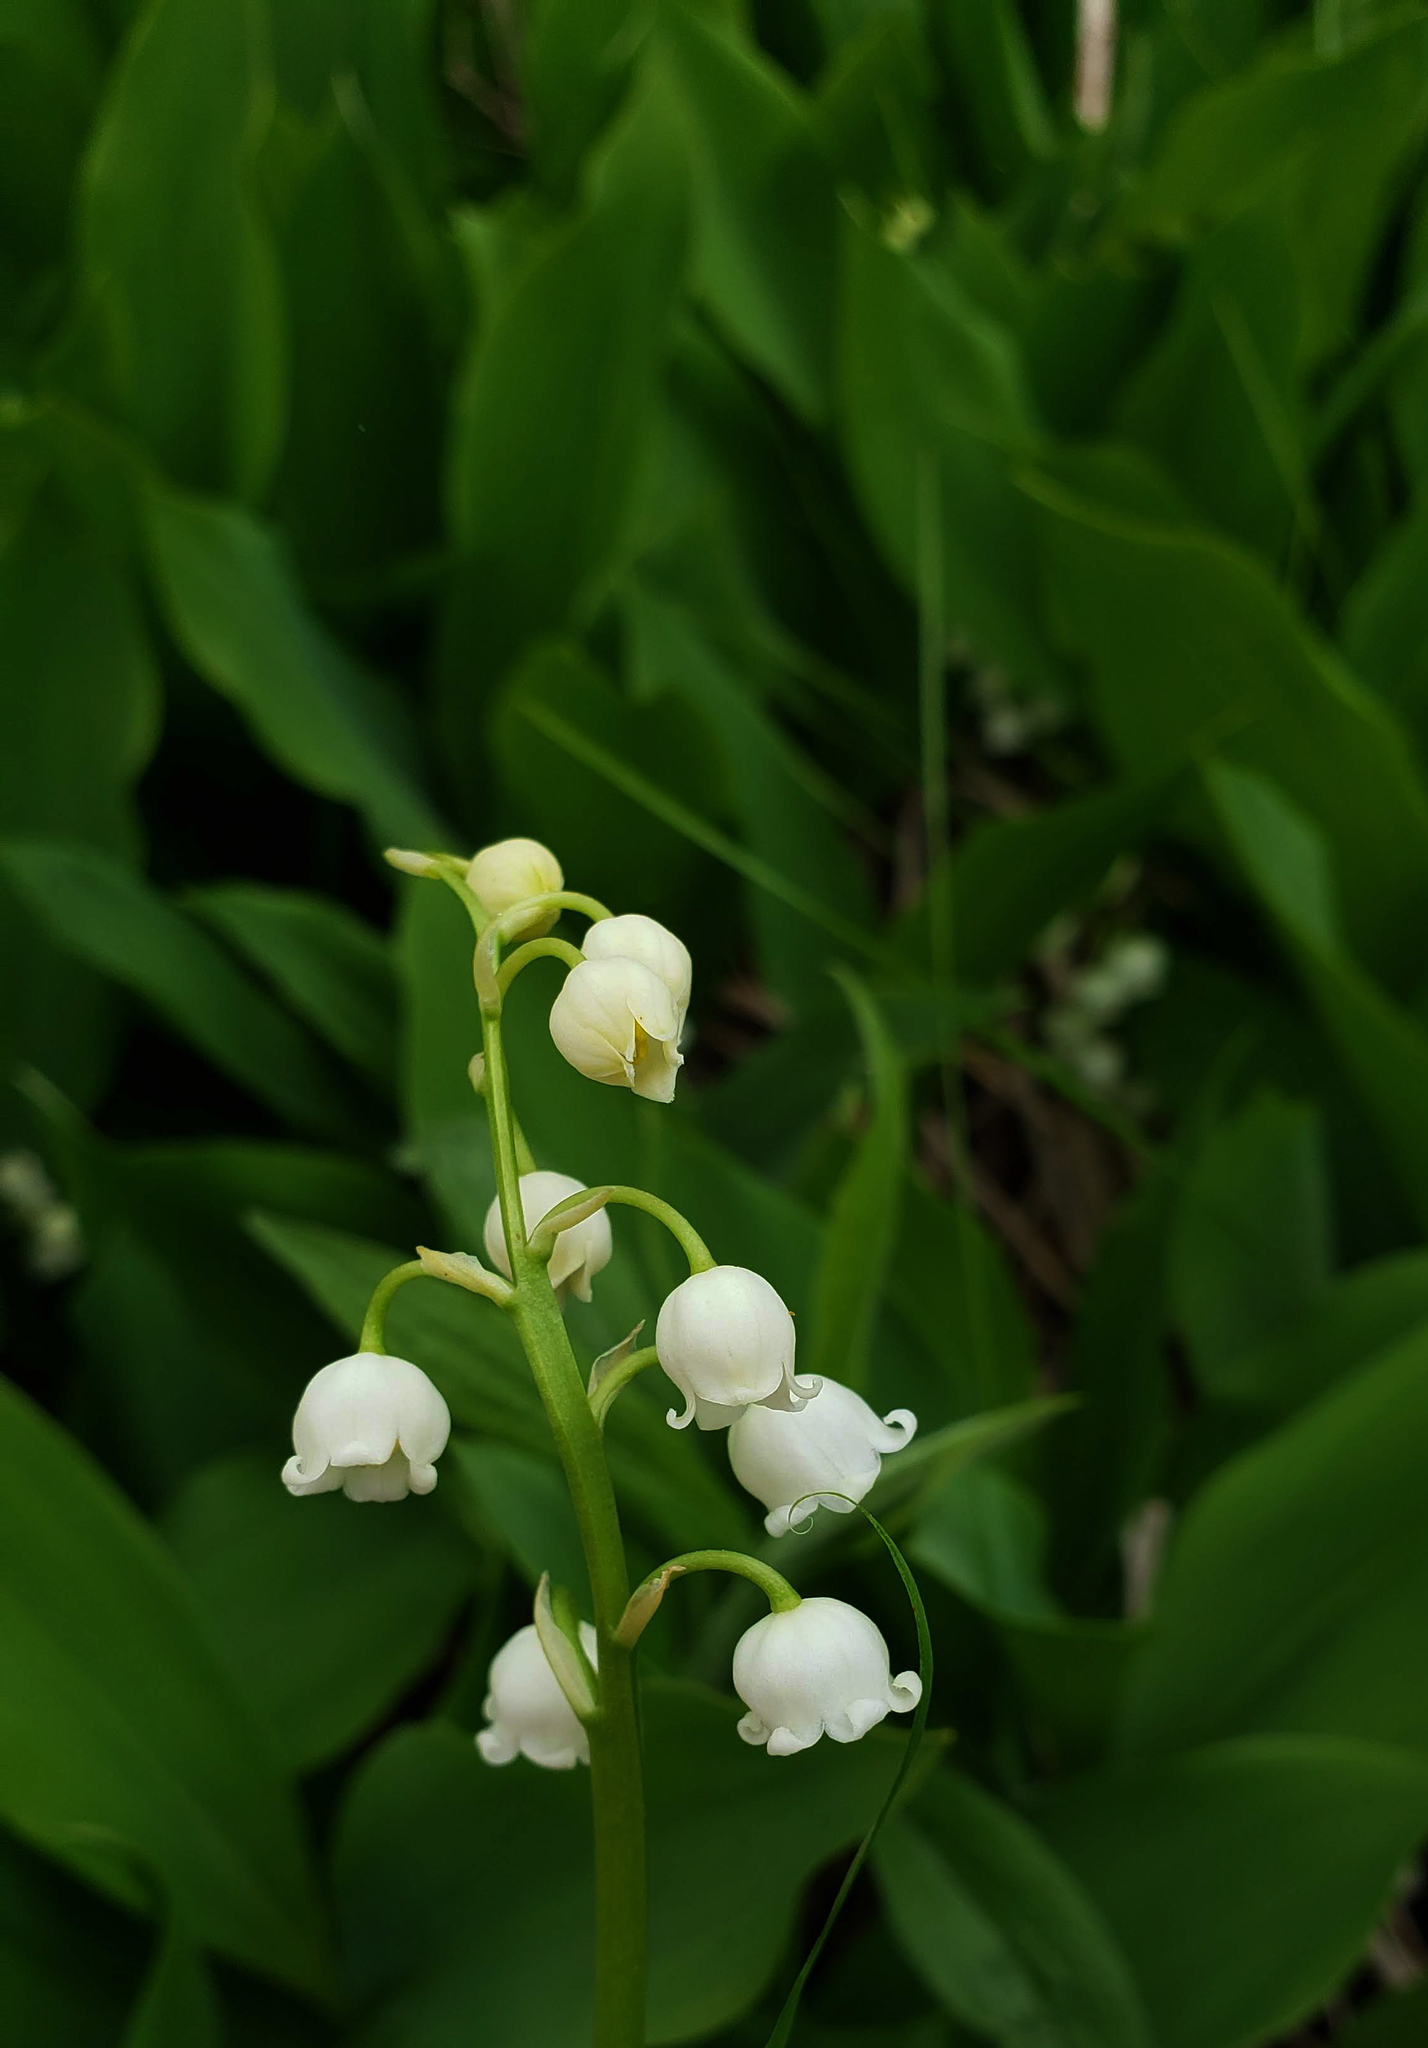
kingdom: Plantae
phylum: Tracheophyta
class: Liliopsida
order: Asparagales
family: Asparagaceae
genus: Convallaria
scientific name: Convallaria majalis
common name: Lily-of-the-valley
